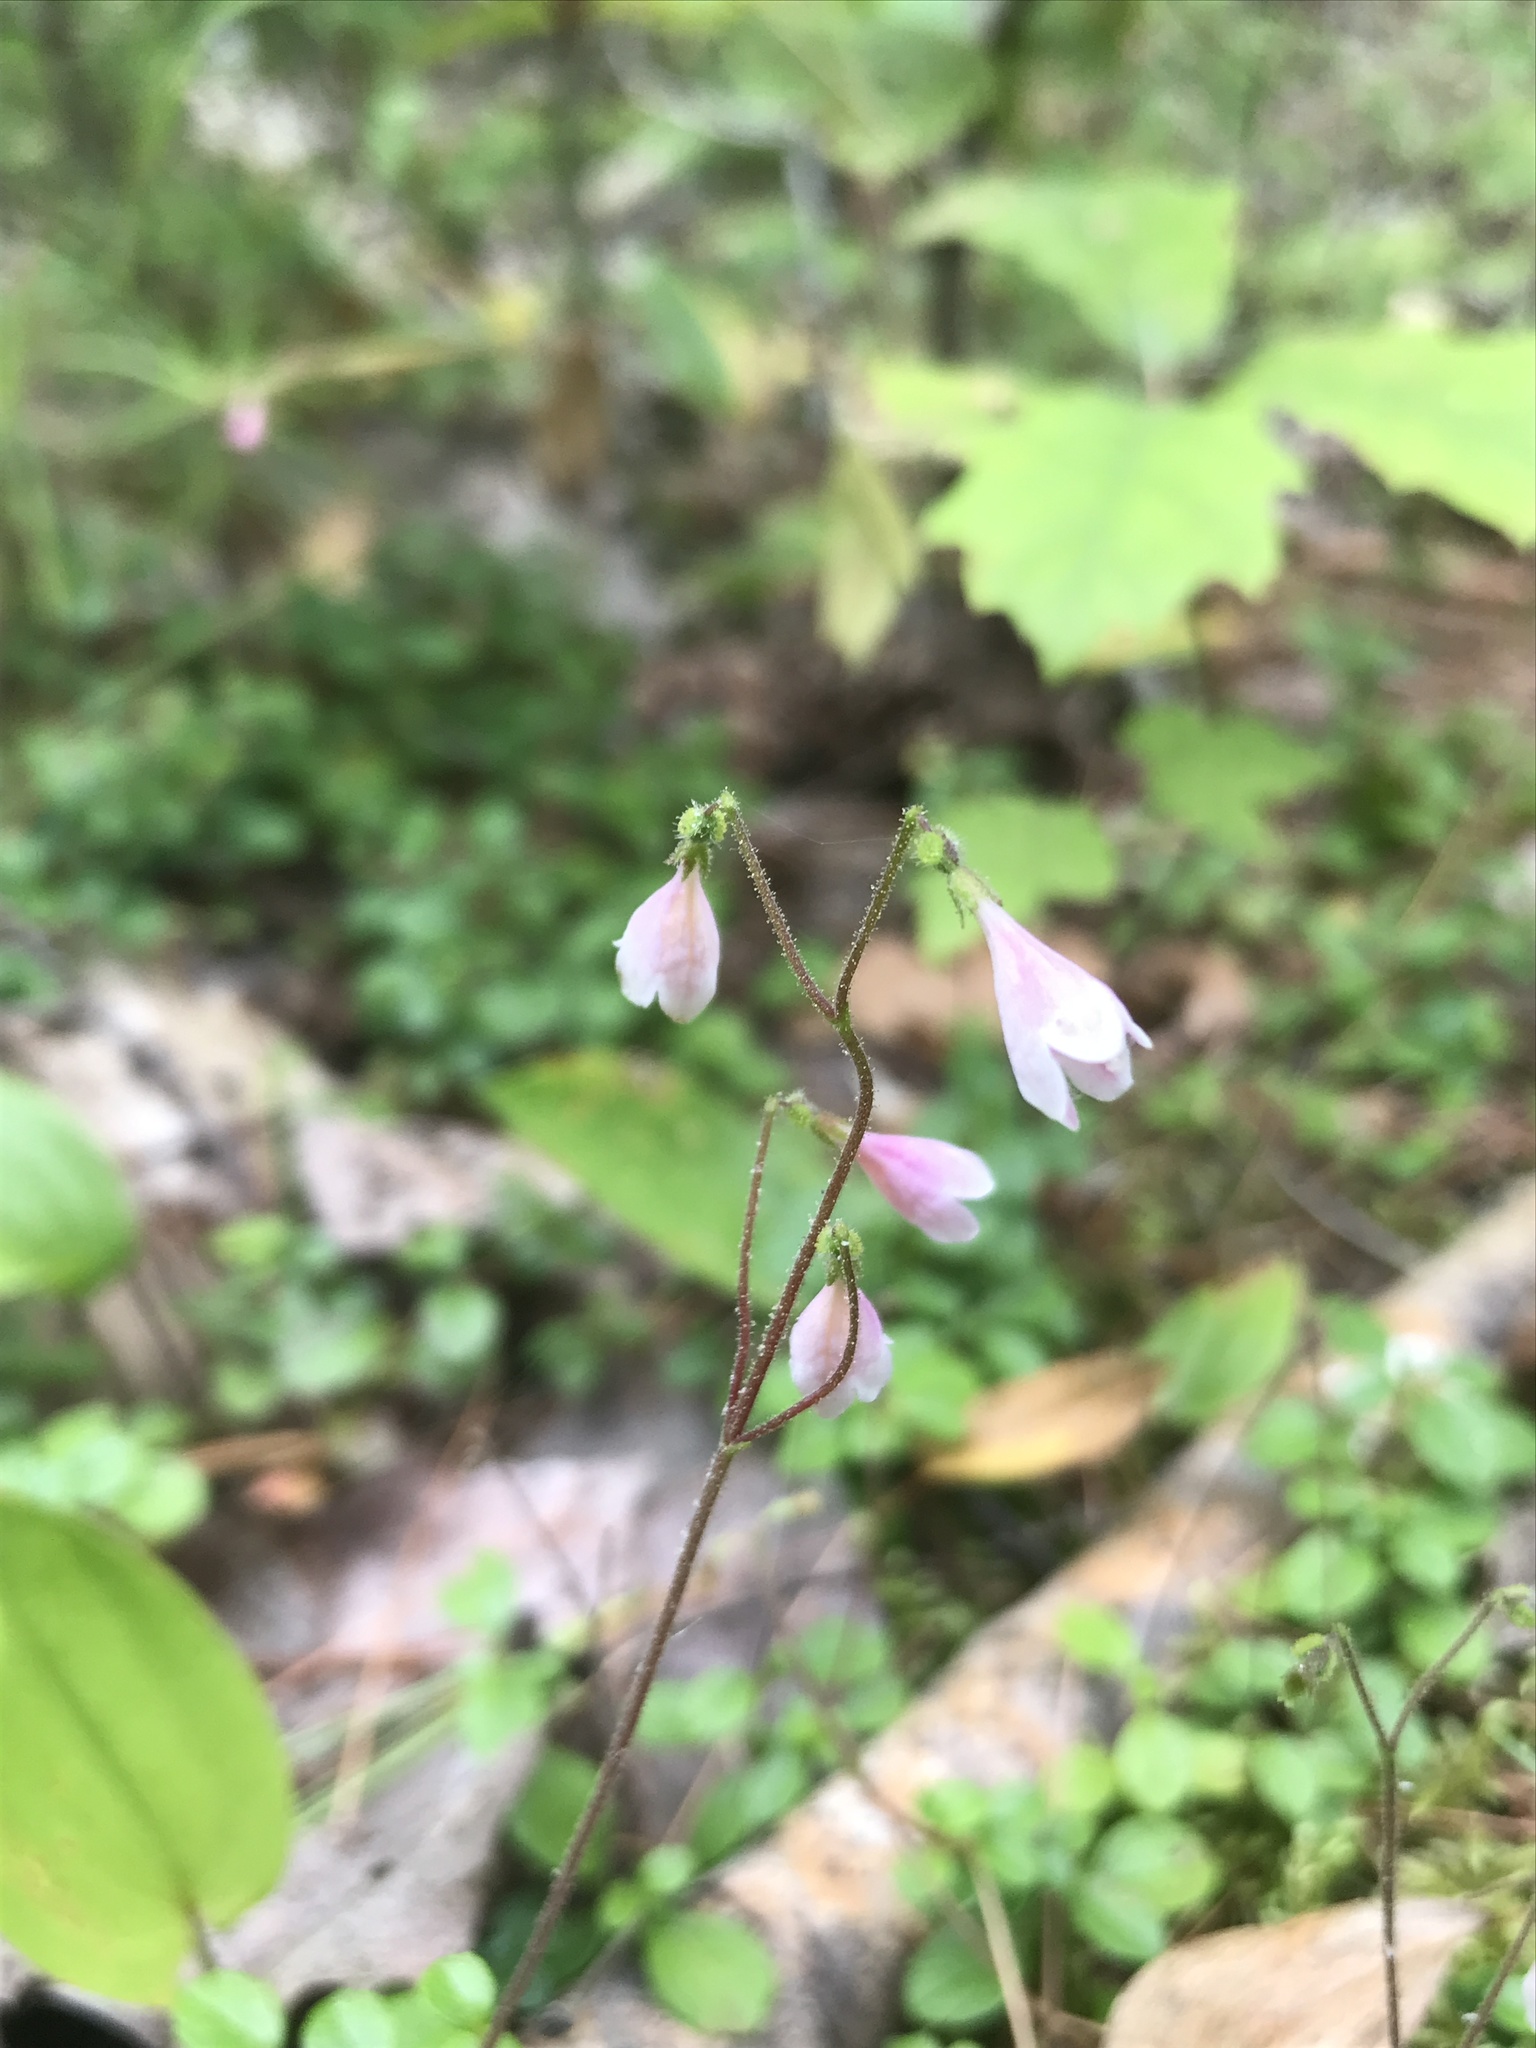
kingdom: Plantae
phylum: Tracheophyta
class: Magnoliopsida
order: Dipsacales
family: Caprifoliaceae
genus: Linnaea
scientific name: Linnaea borealis
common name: Twinflower
